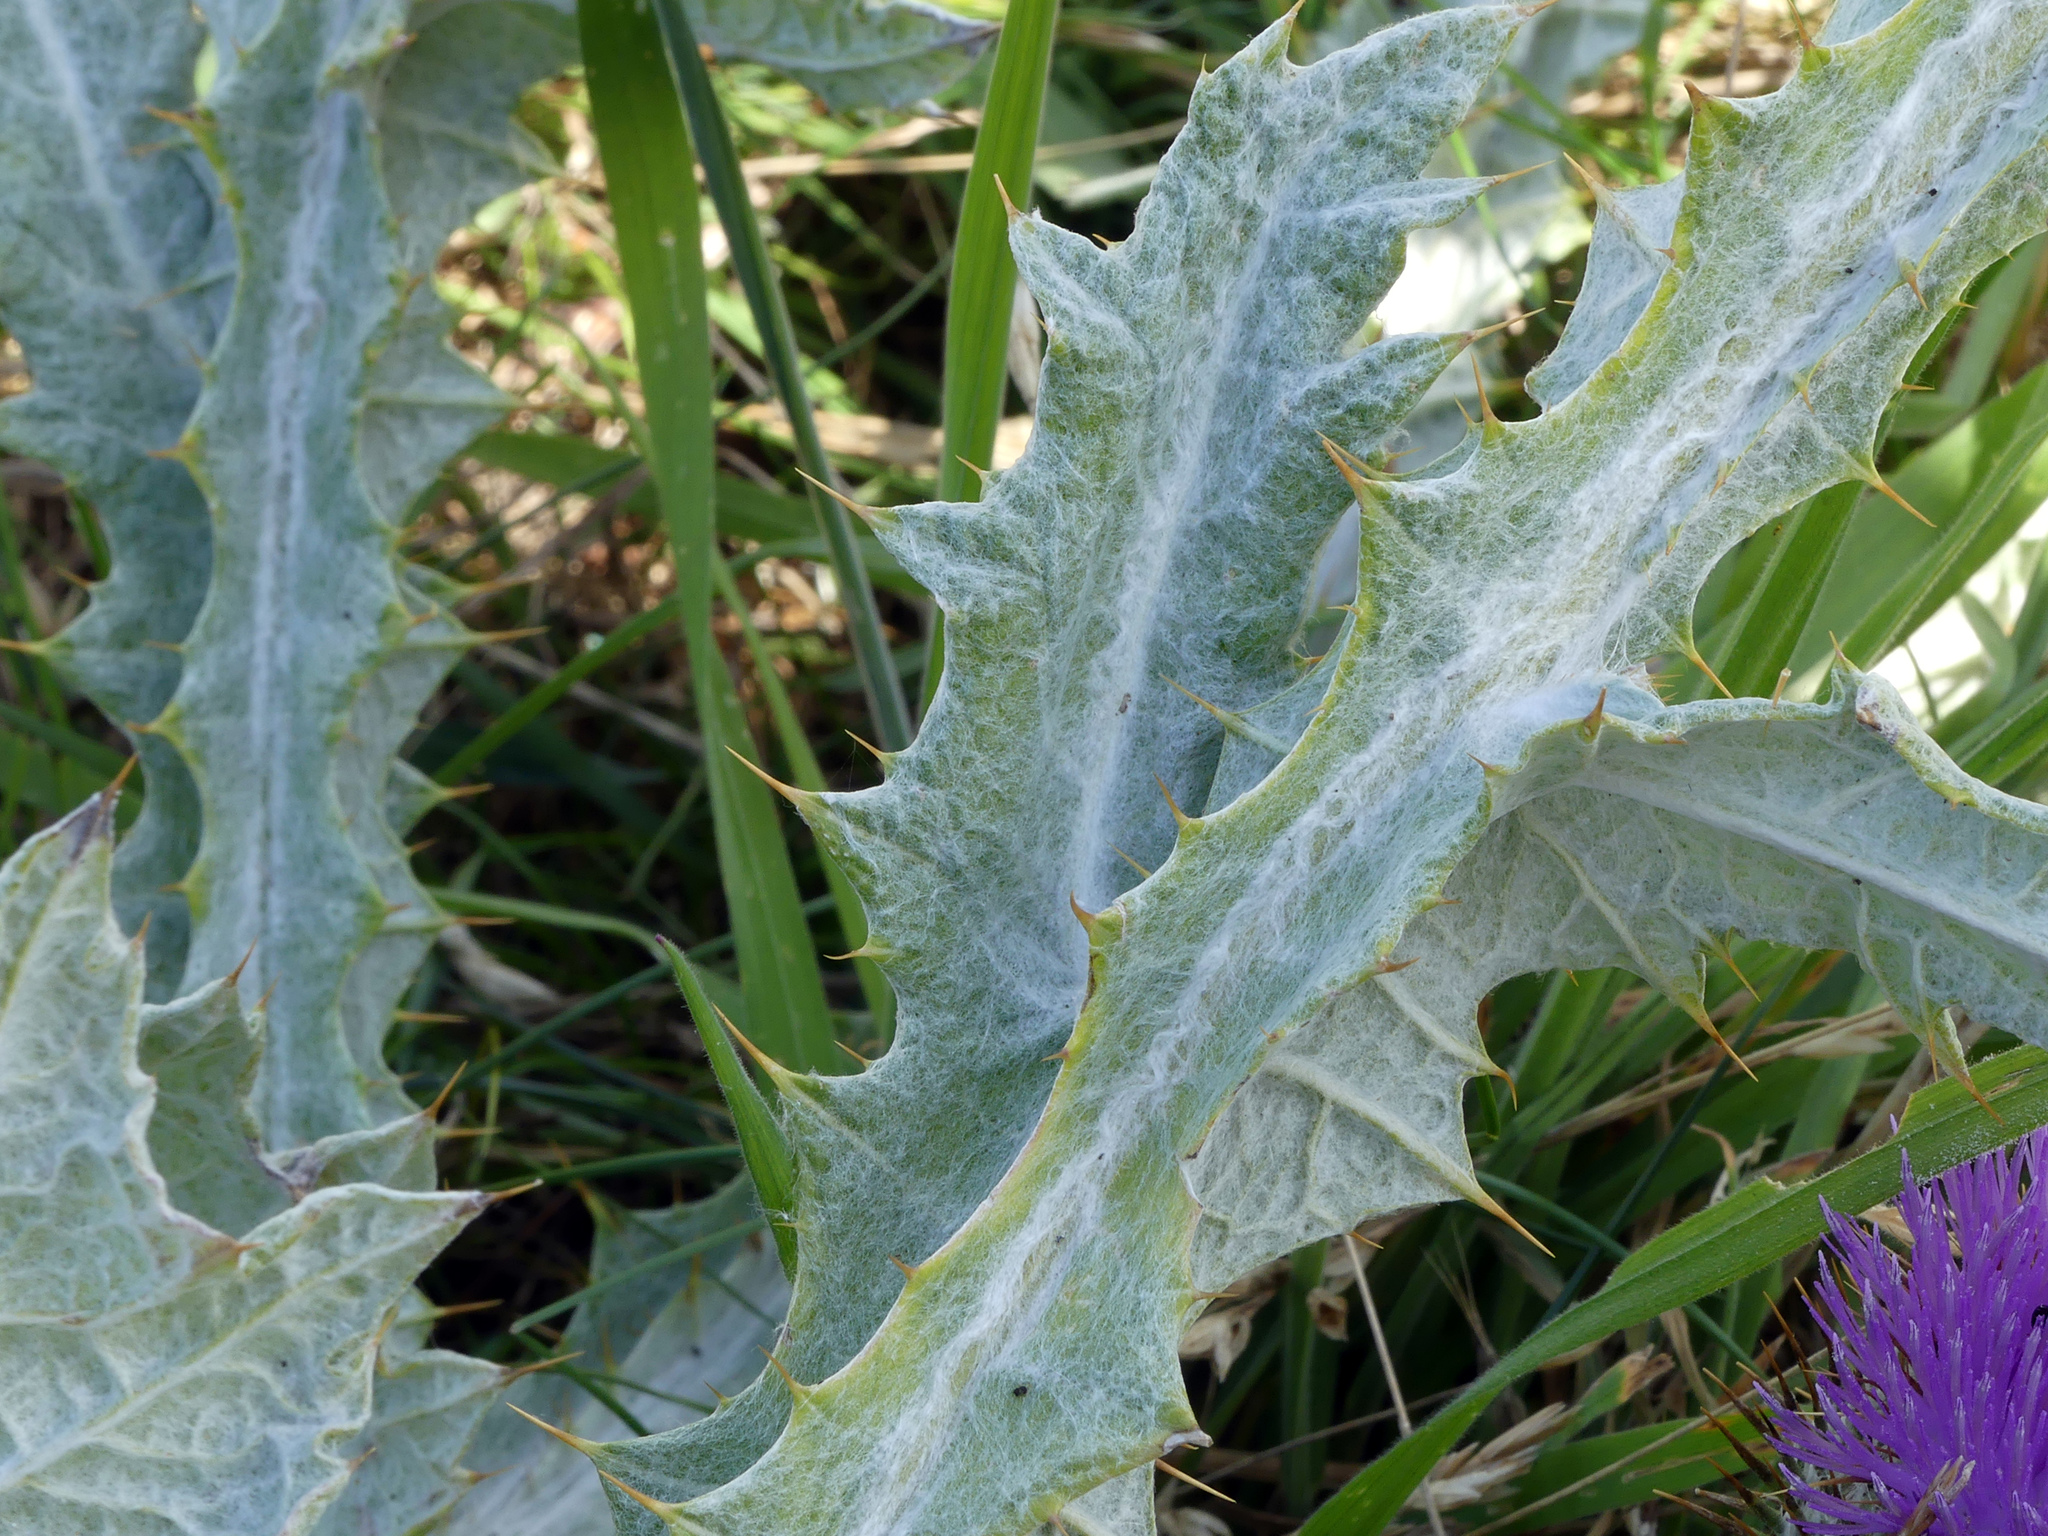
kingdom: Plantae
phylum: Tracheophyta
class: Magnoliopsida
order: Asterales
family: Asteraceae
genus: Onopordum
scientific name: Onopordum acanthium
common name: Scotch thistle
